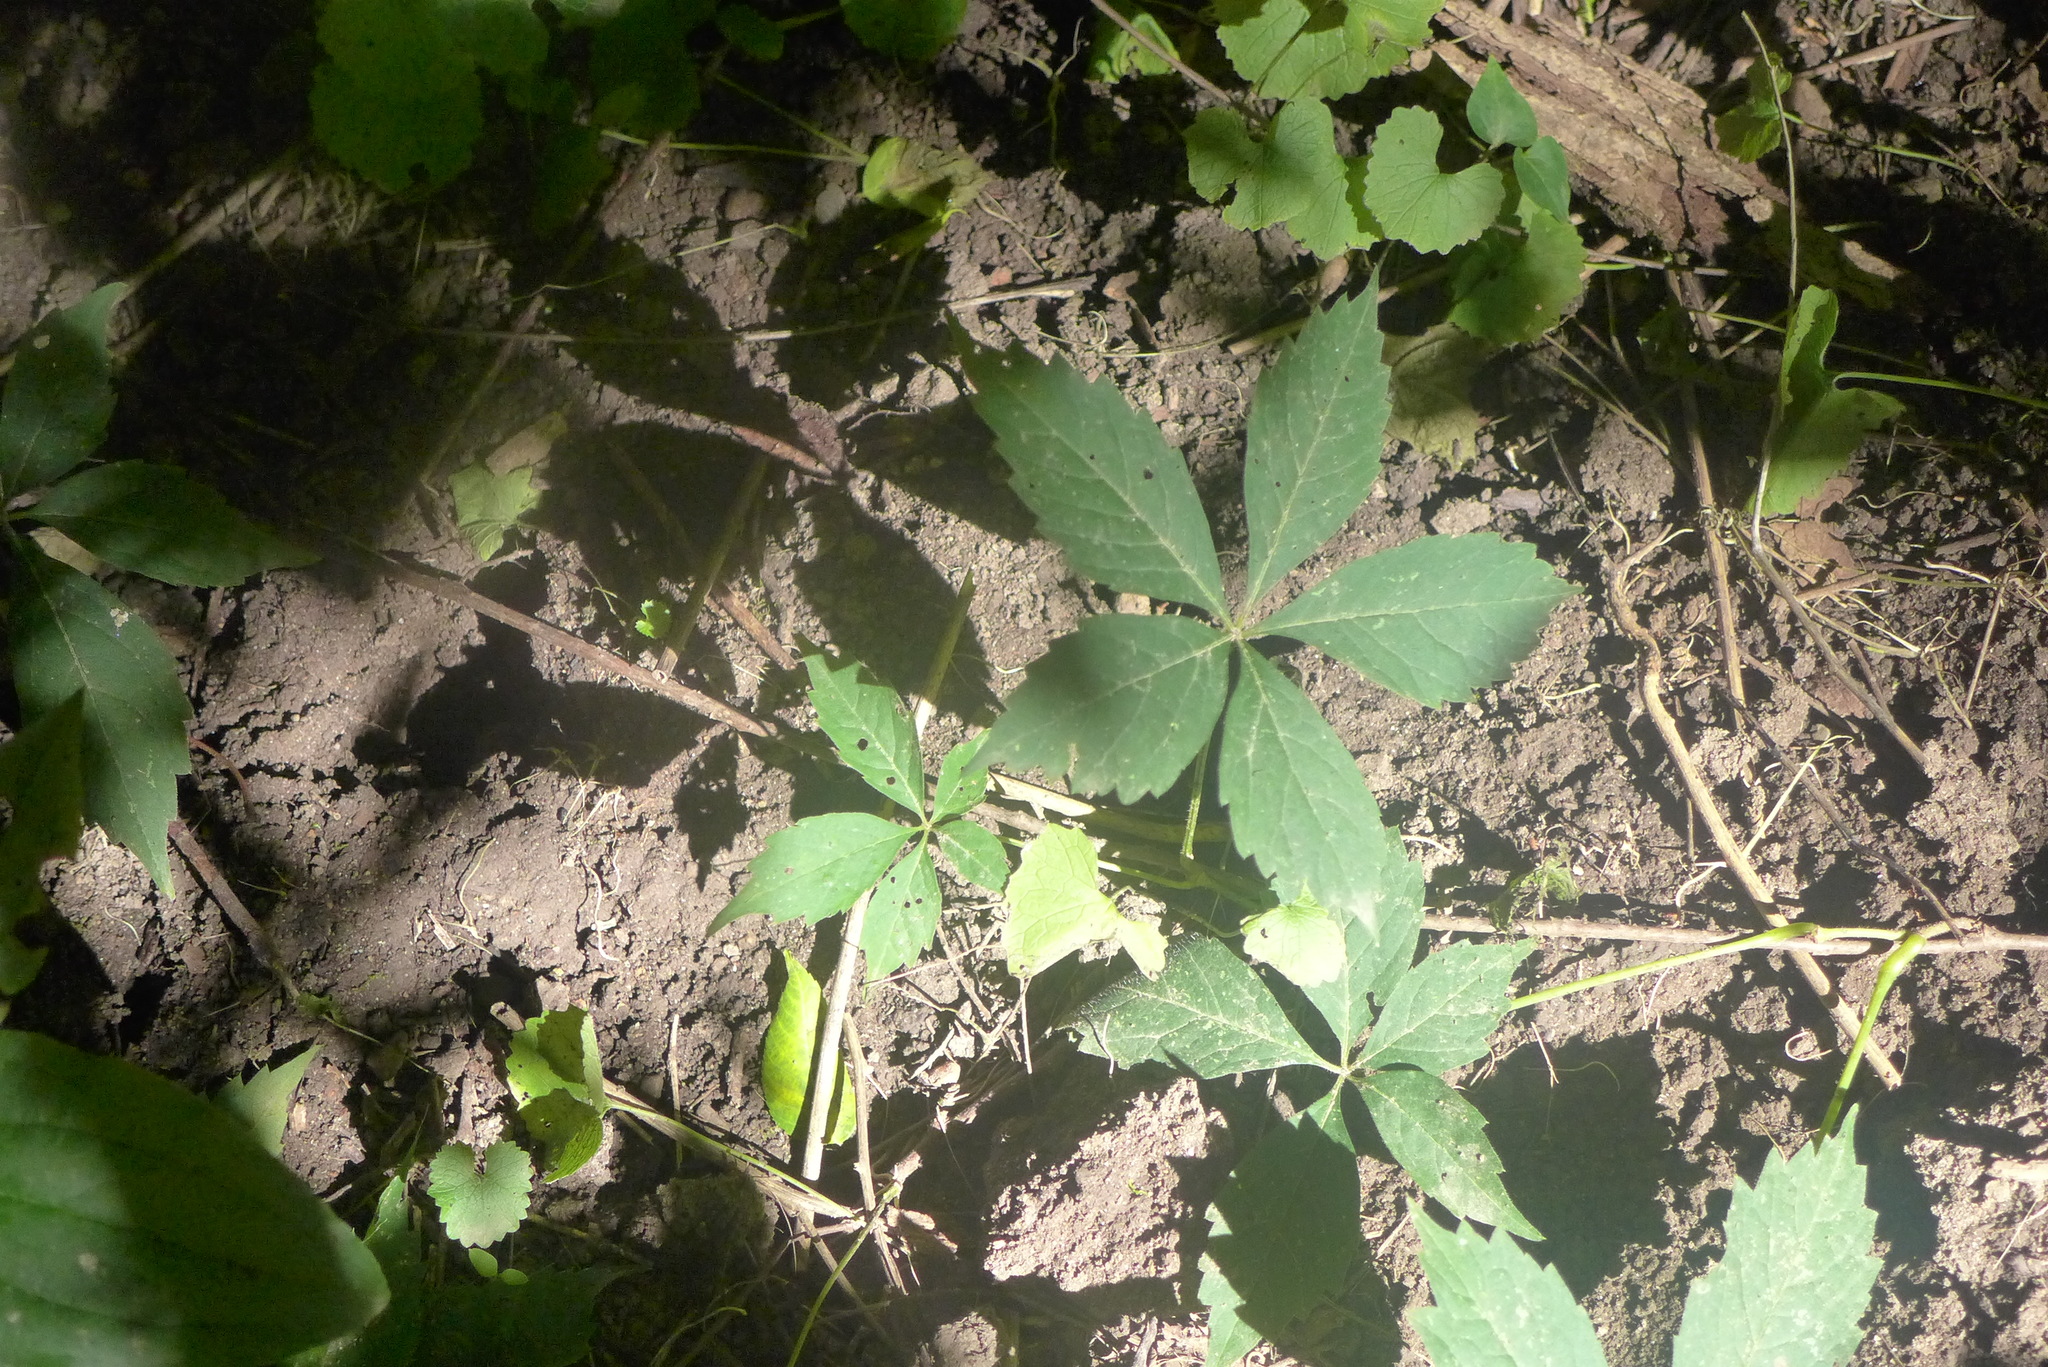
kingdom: Plantae
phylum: Tracheophyta
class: Magnoliopsida
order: Vitales
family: Vitaceae
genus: Parthenocissus
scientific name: Parthenocissus quinquefolia
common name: Virginia-creeper
